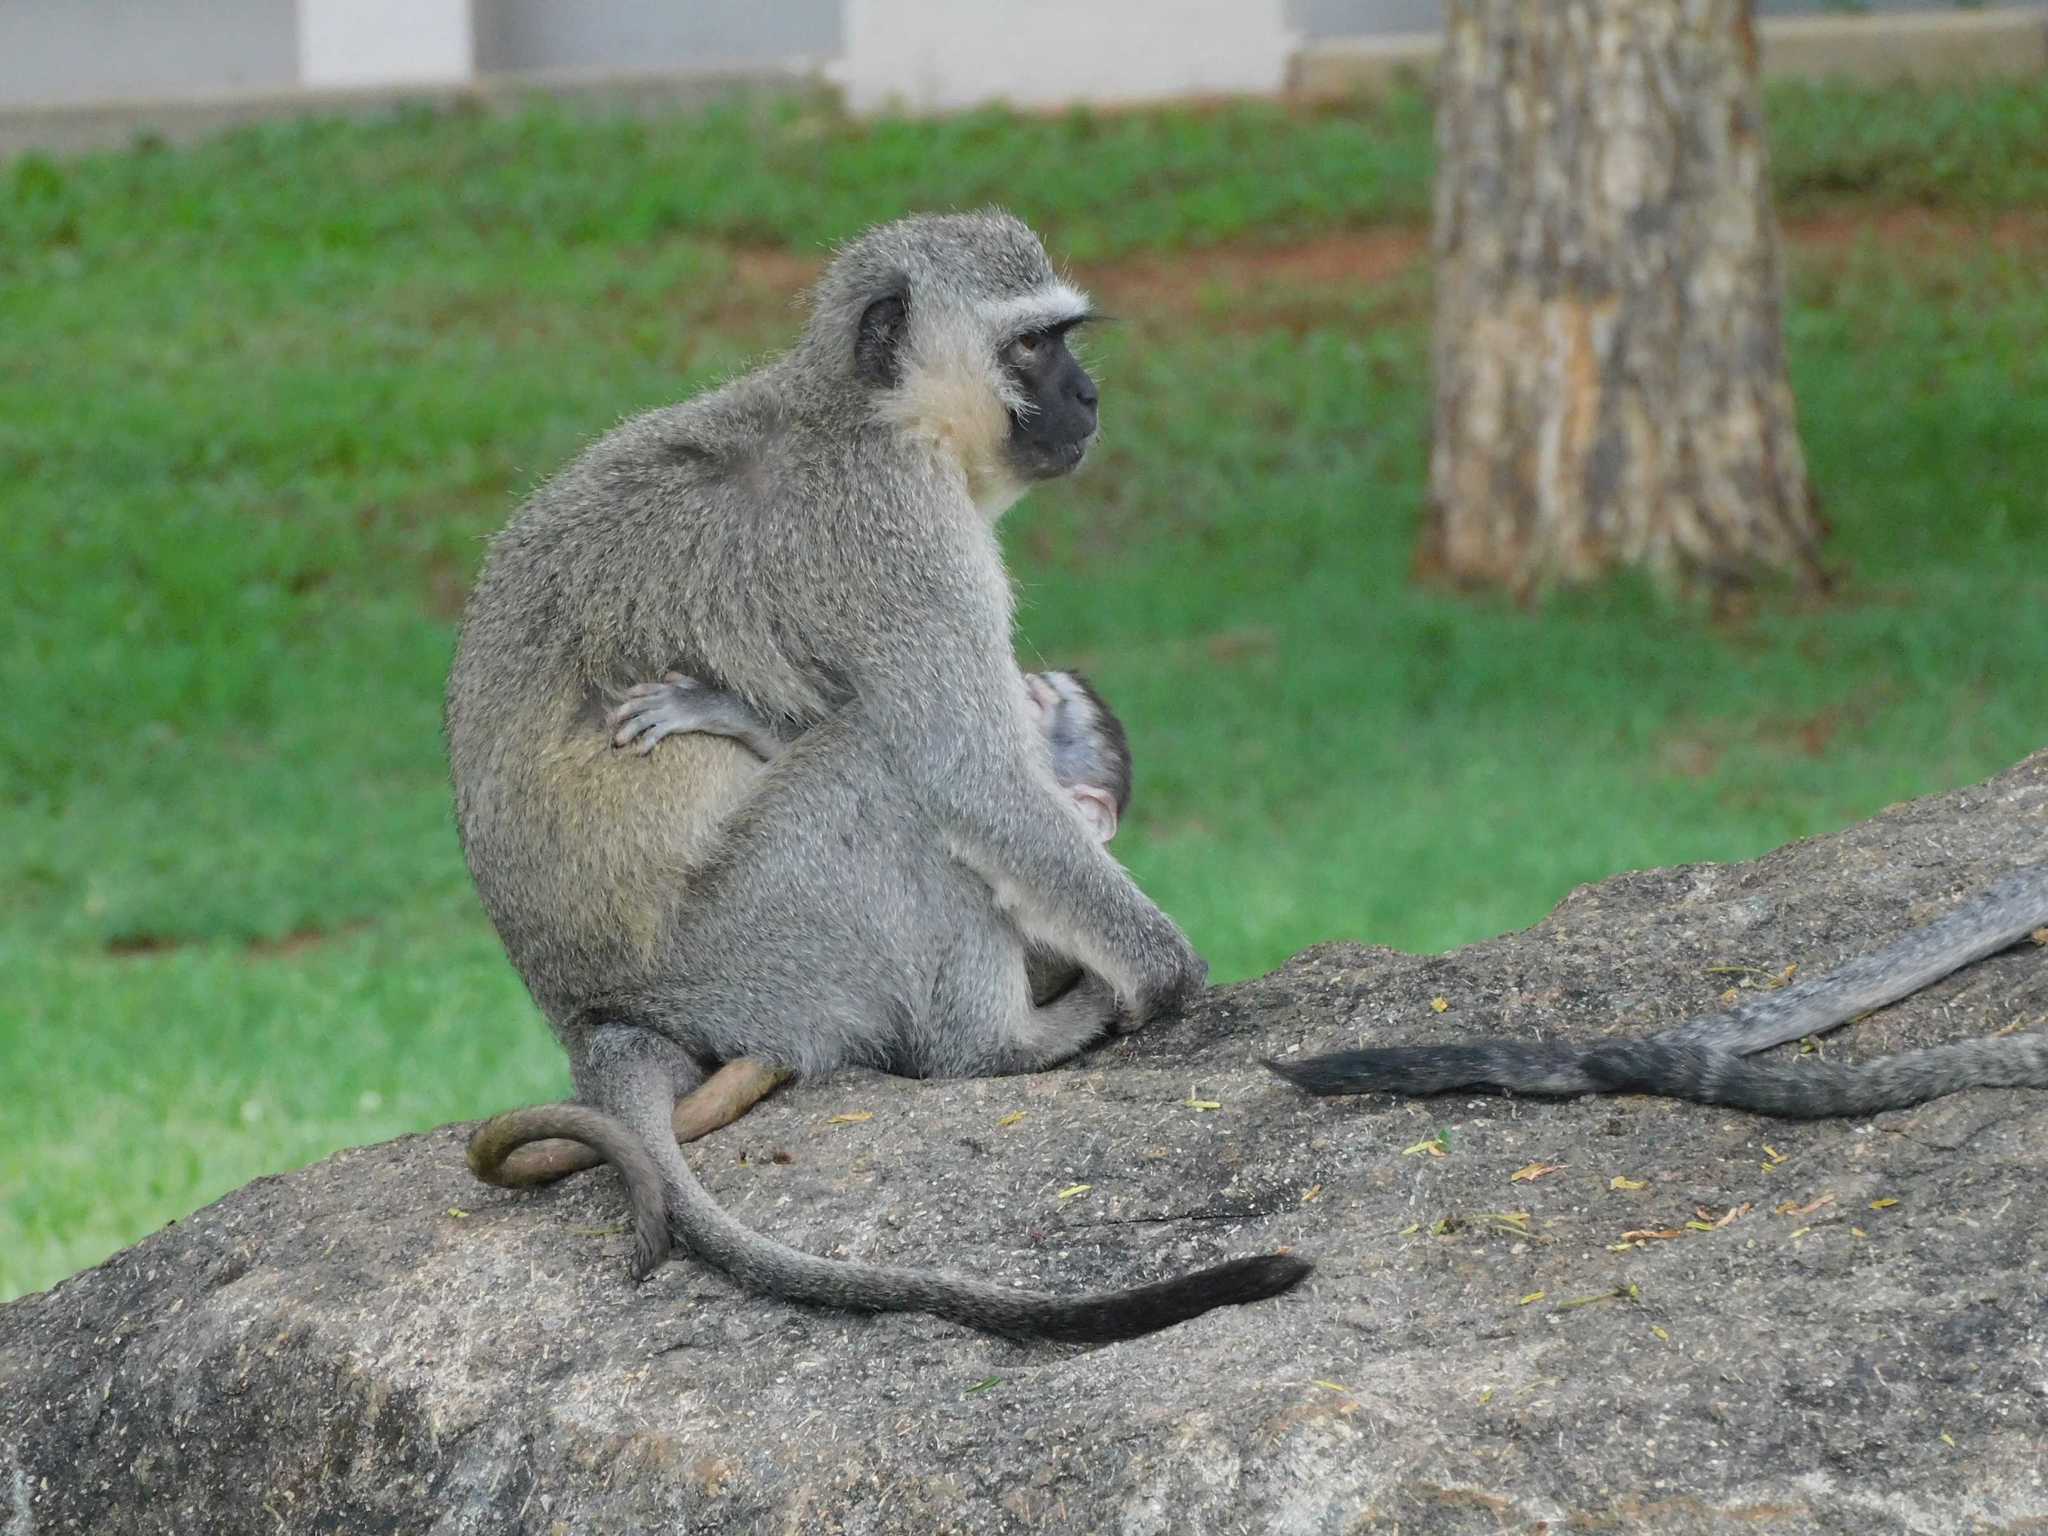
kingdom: Animalia
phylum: Chordata
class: Mammalia
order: Primates
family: Cercopithecidae
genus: Chlorocebus
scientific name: Chlorocebus pygerythrus
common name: Vervet monkey
